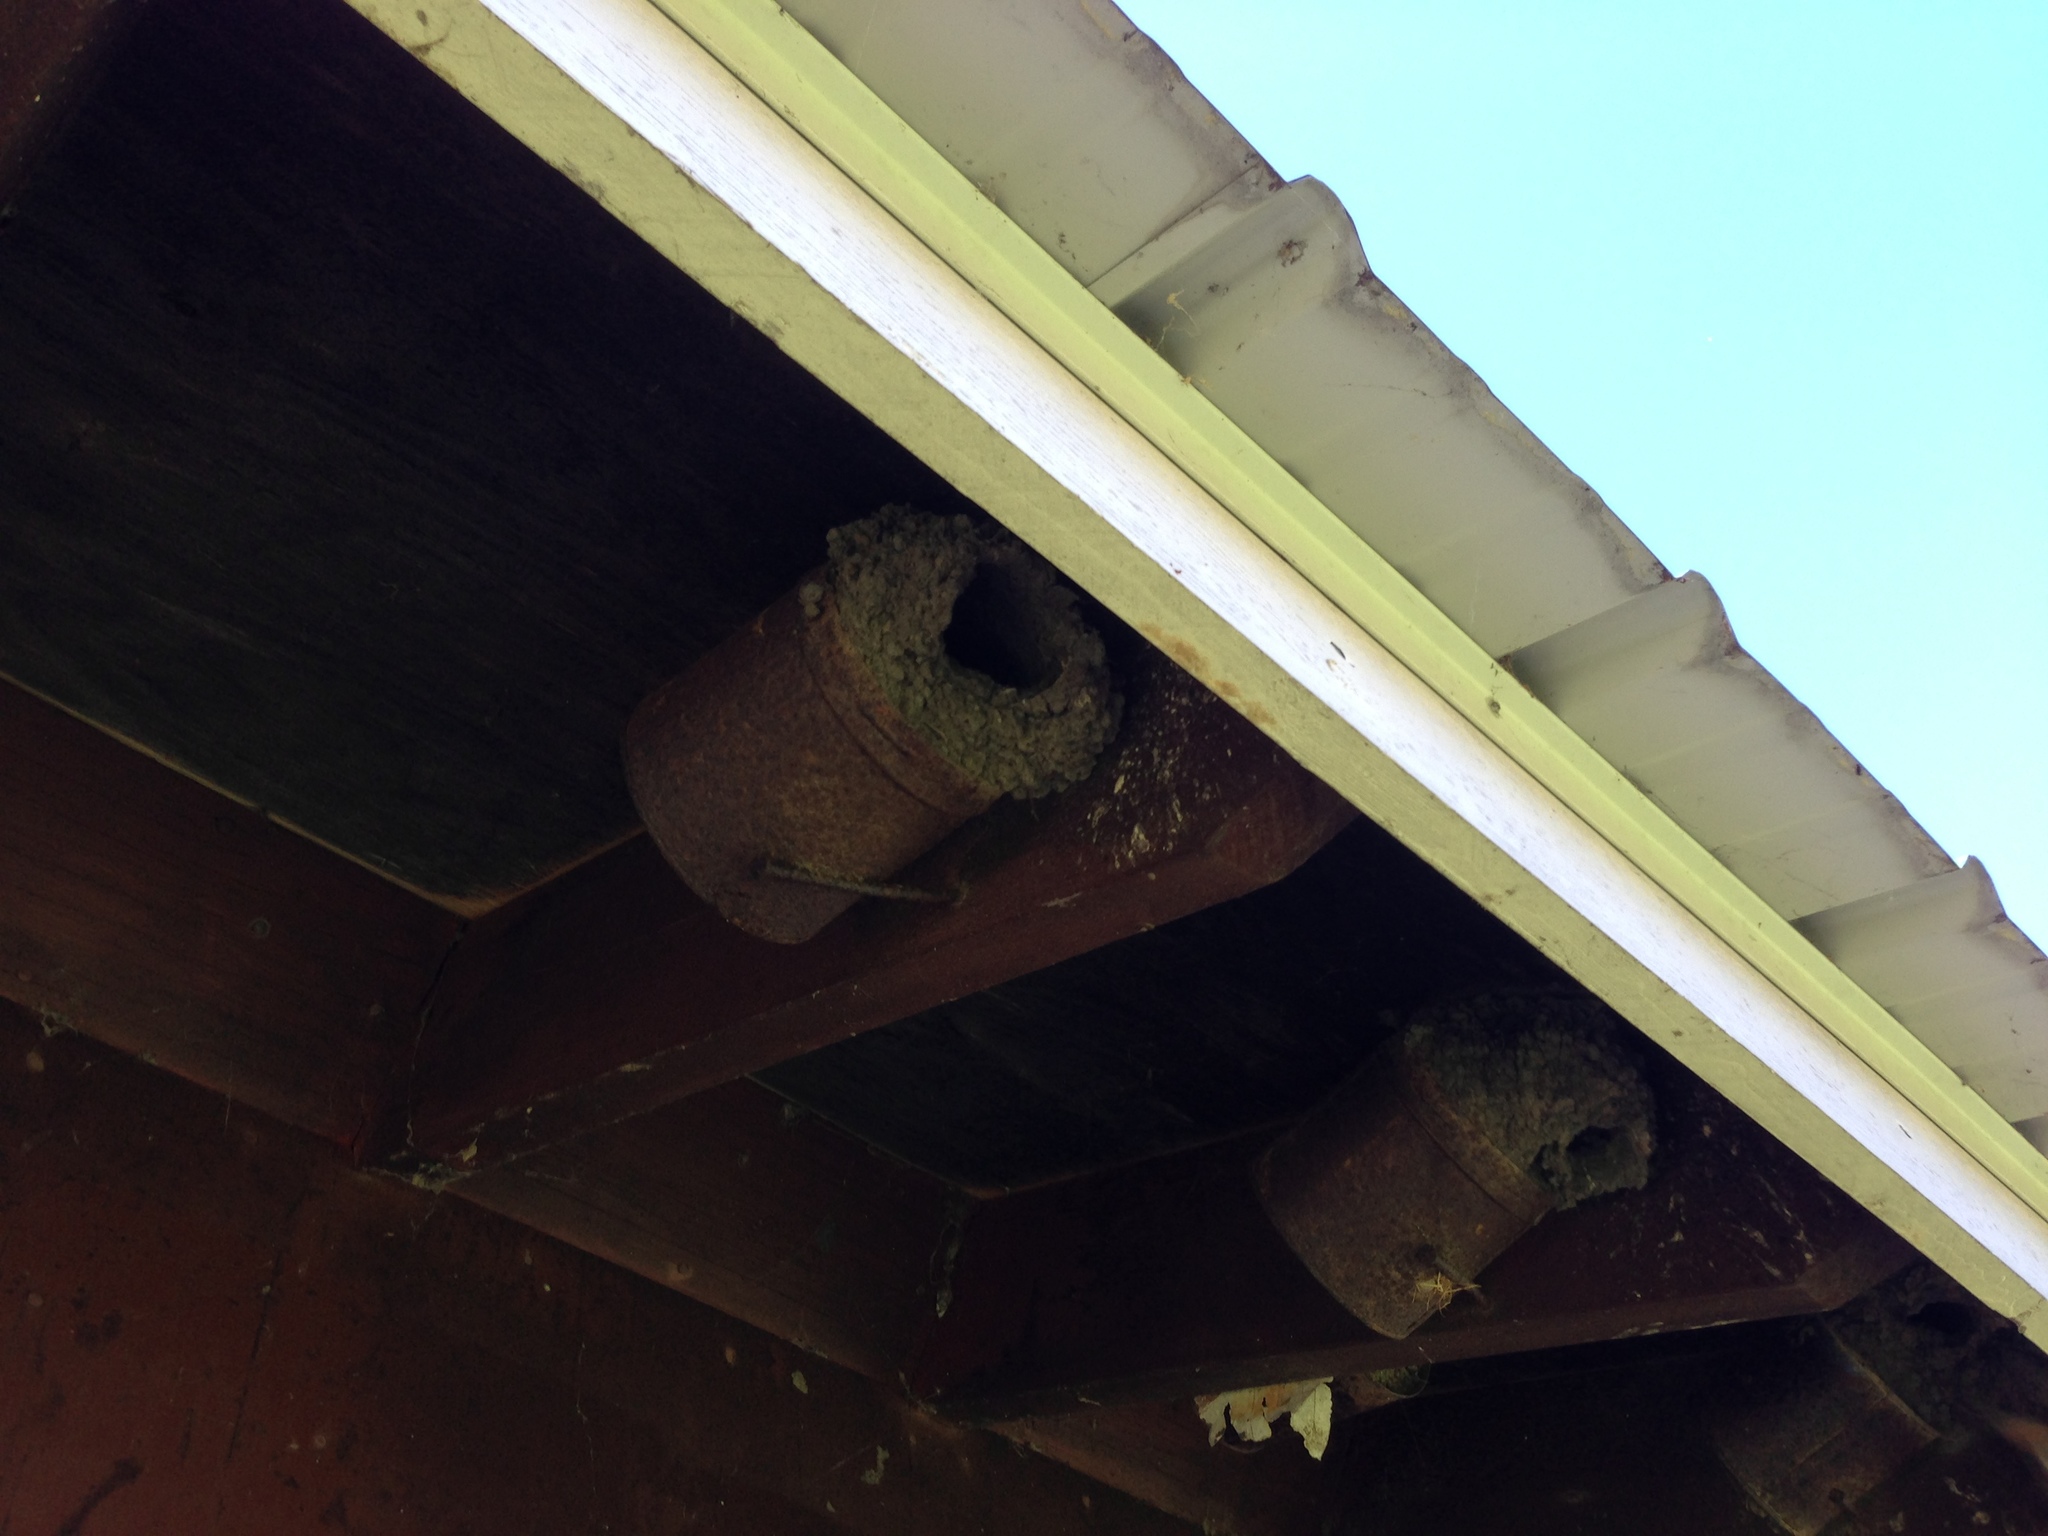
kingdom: Animalia
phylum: Chordata
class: Aves
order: Passeriformes
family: Hirundinidae
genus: Petrochelidon
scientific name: Petrochelidon pyrrhonota
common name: American cliff swallow
